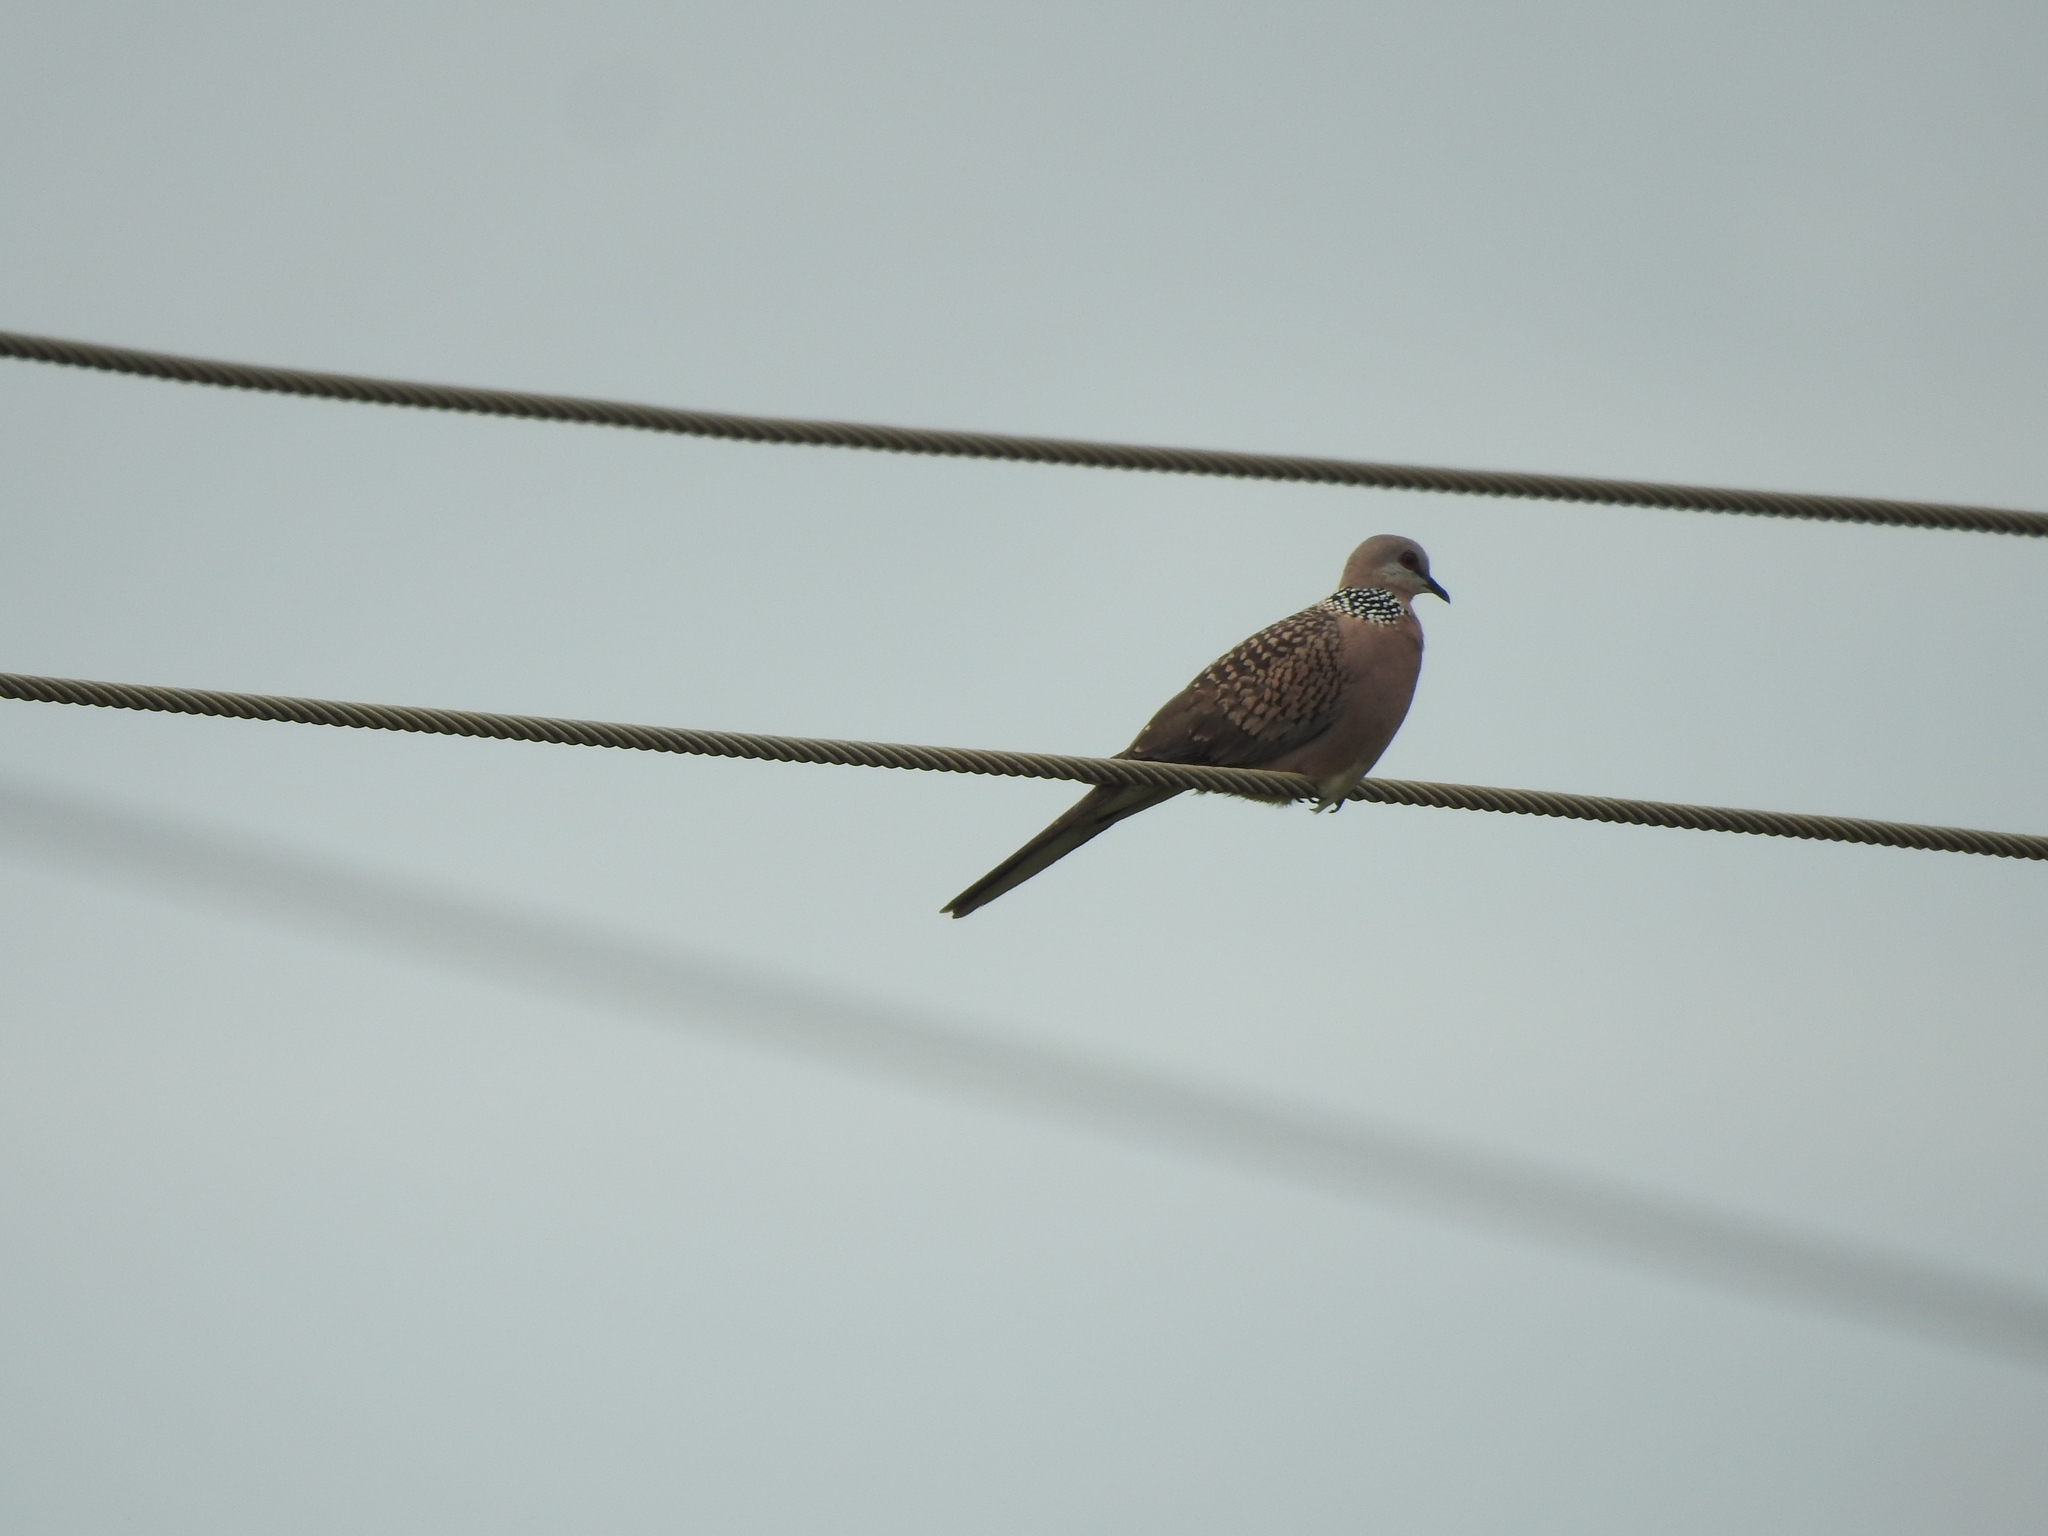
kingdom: Animalia
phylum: Chordata
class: Aves
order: Columbiformes
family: Columbidae
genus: Spilopelia
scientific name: Spilopelia chinensis
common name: Spotted dove
